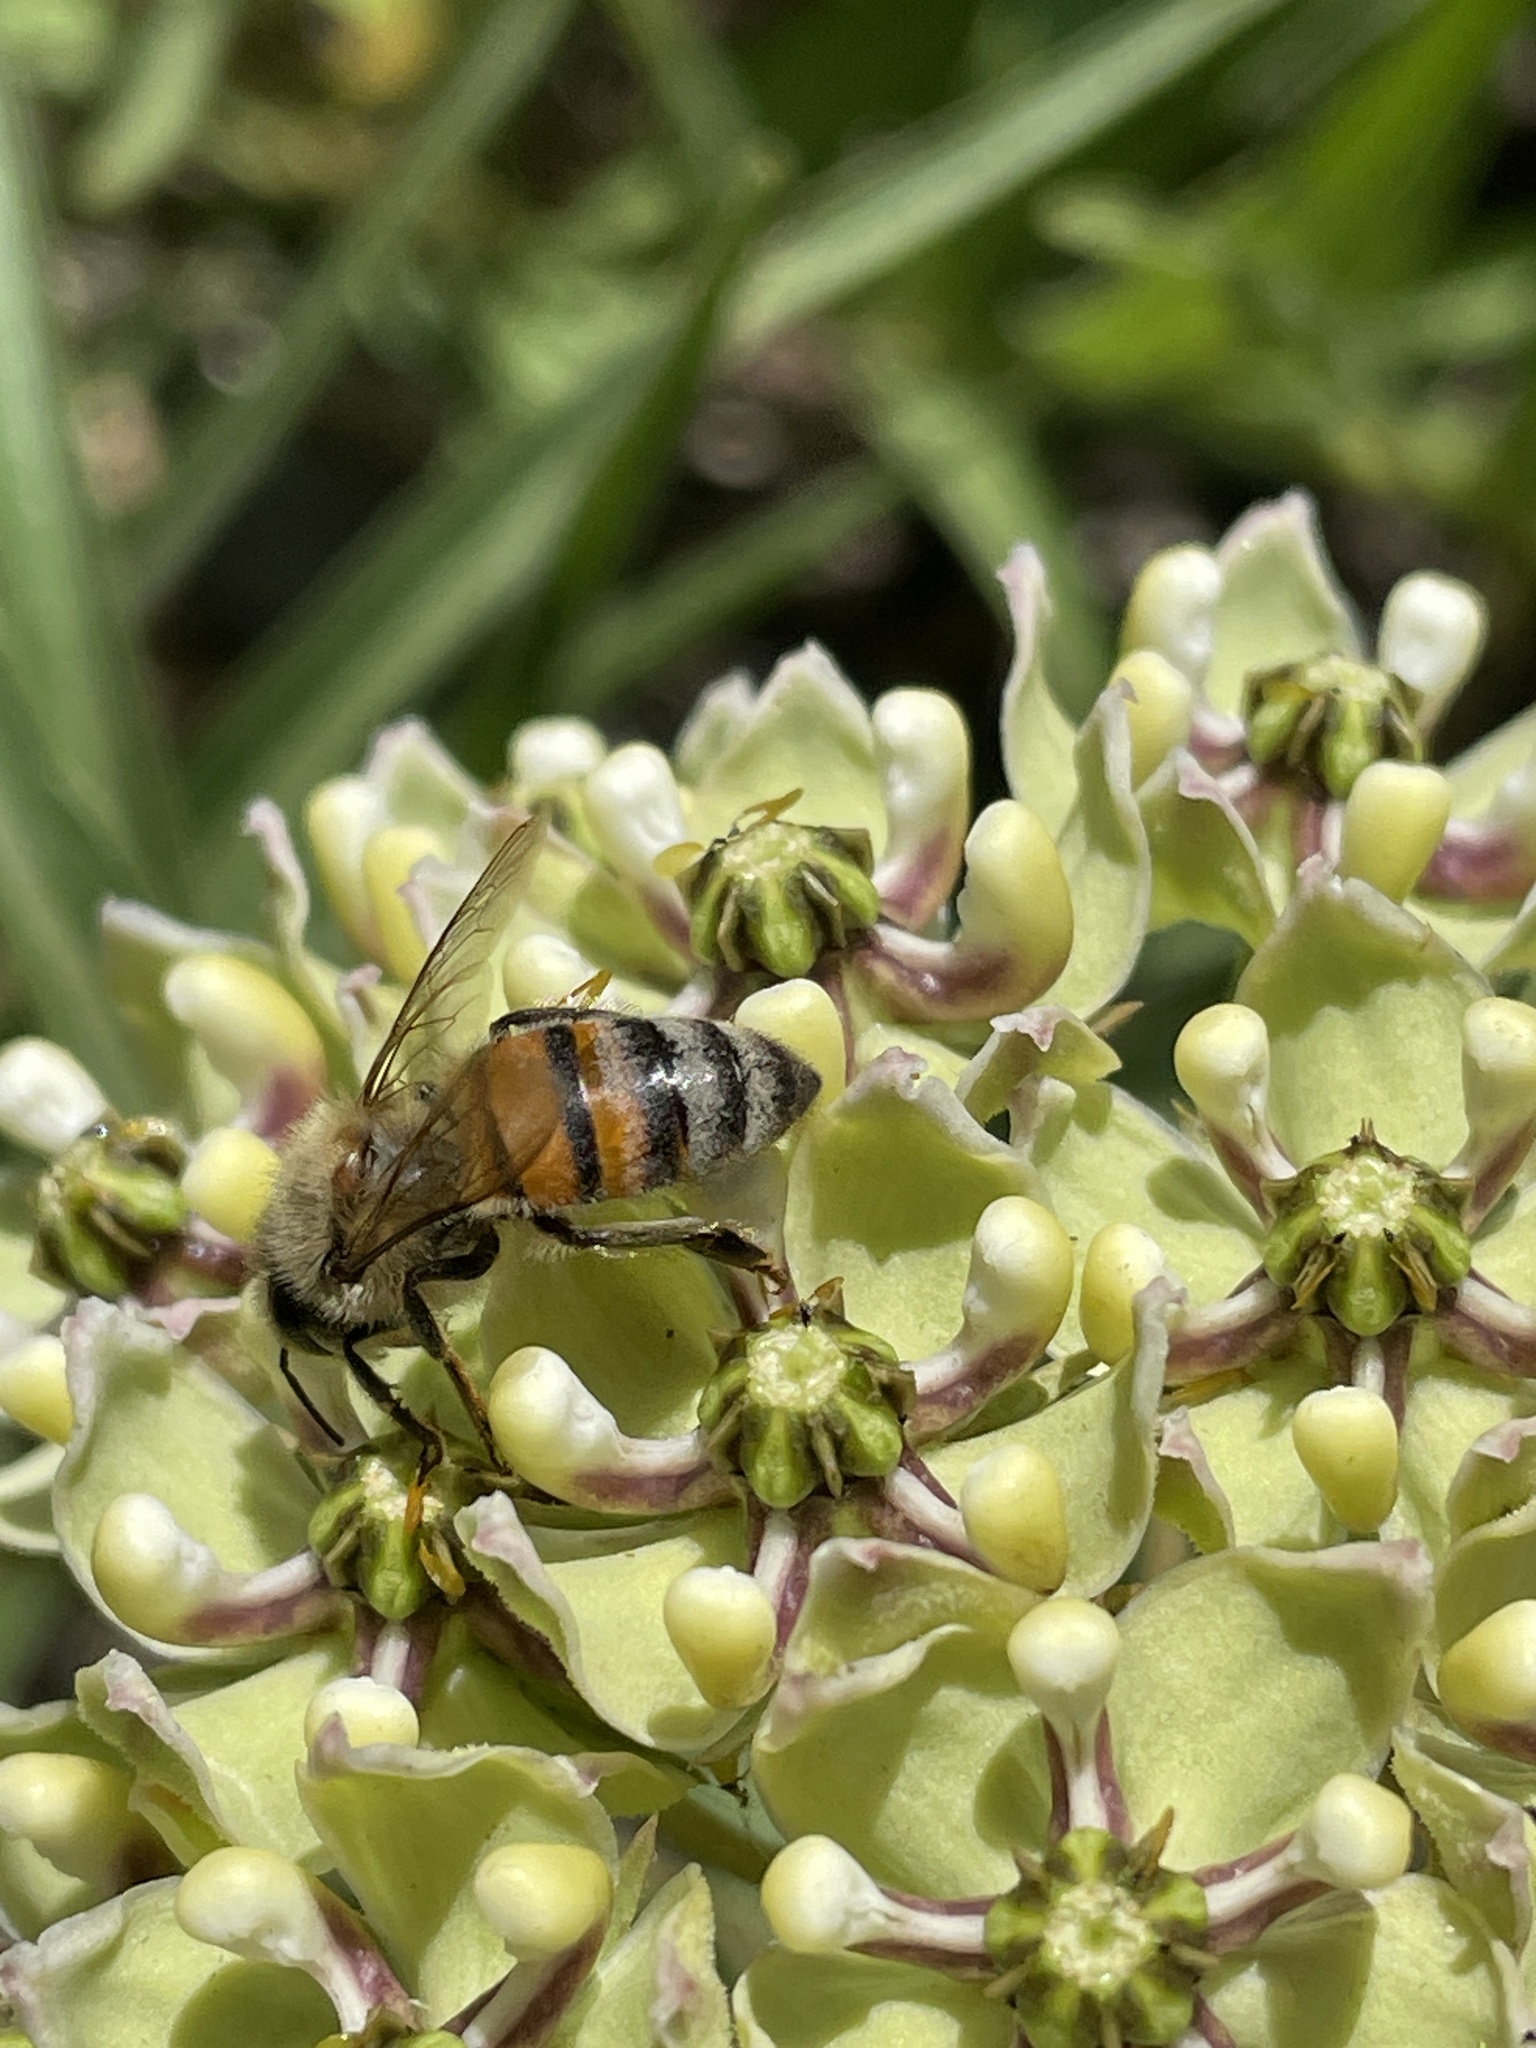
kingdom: Animalia
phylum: Arthropoda
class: Insecta
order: Hymenoptera
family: Apidae
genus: Apis
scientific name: Apis mellifera
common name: Honey bee
